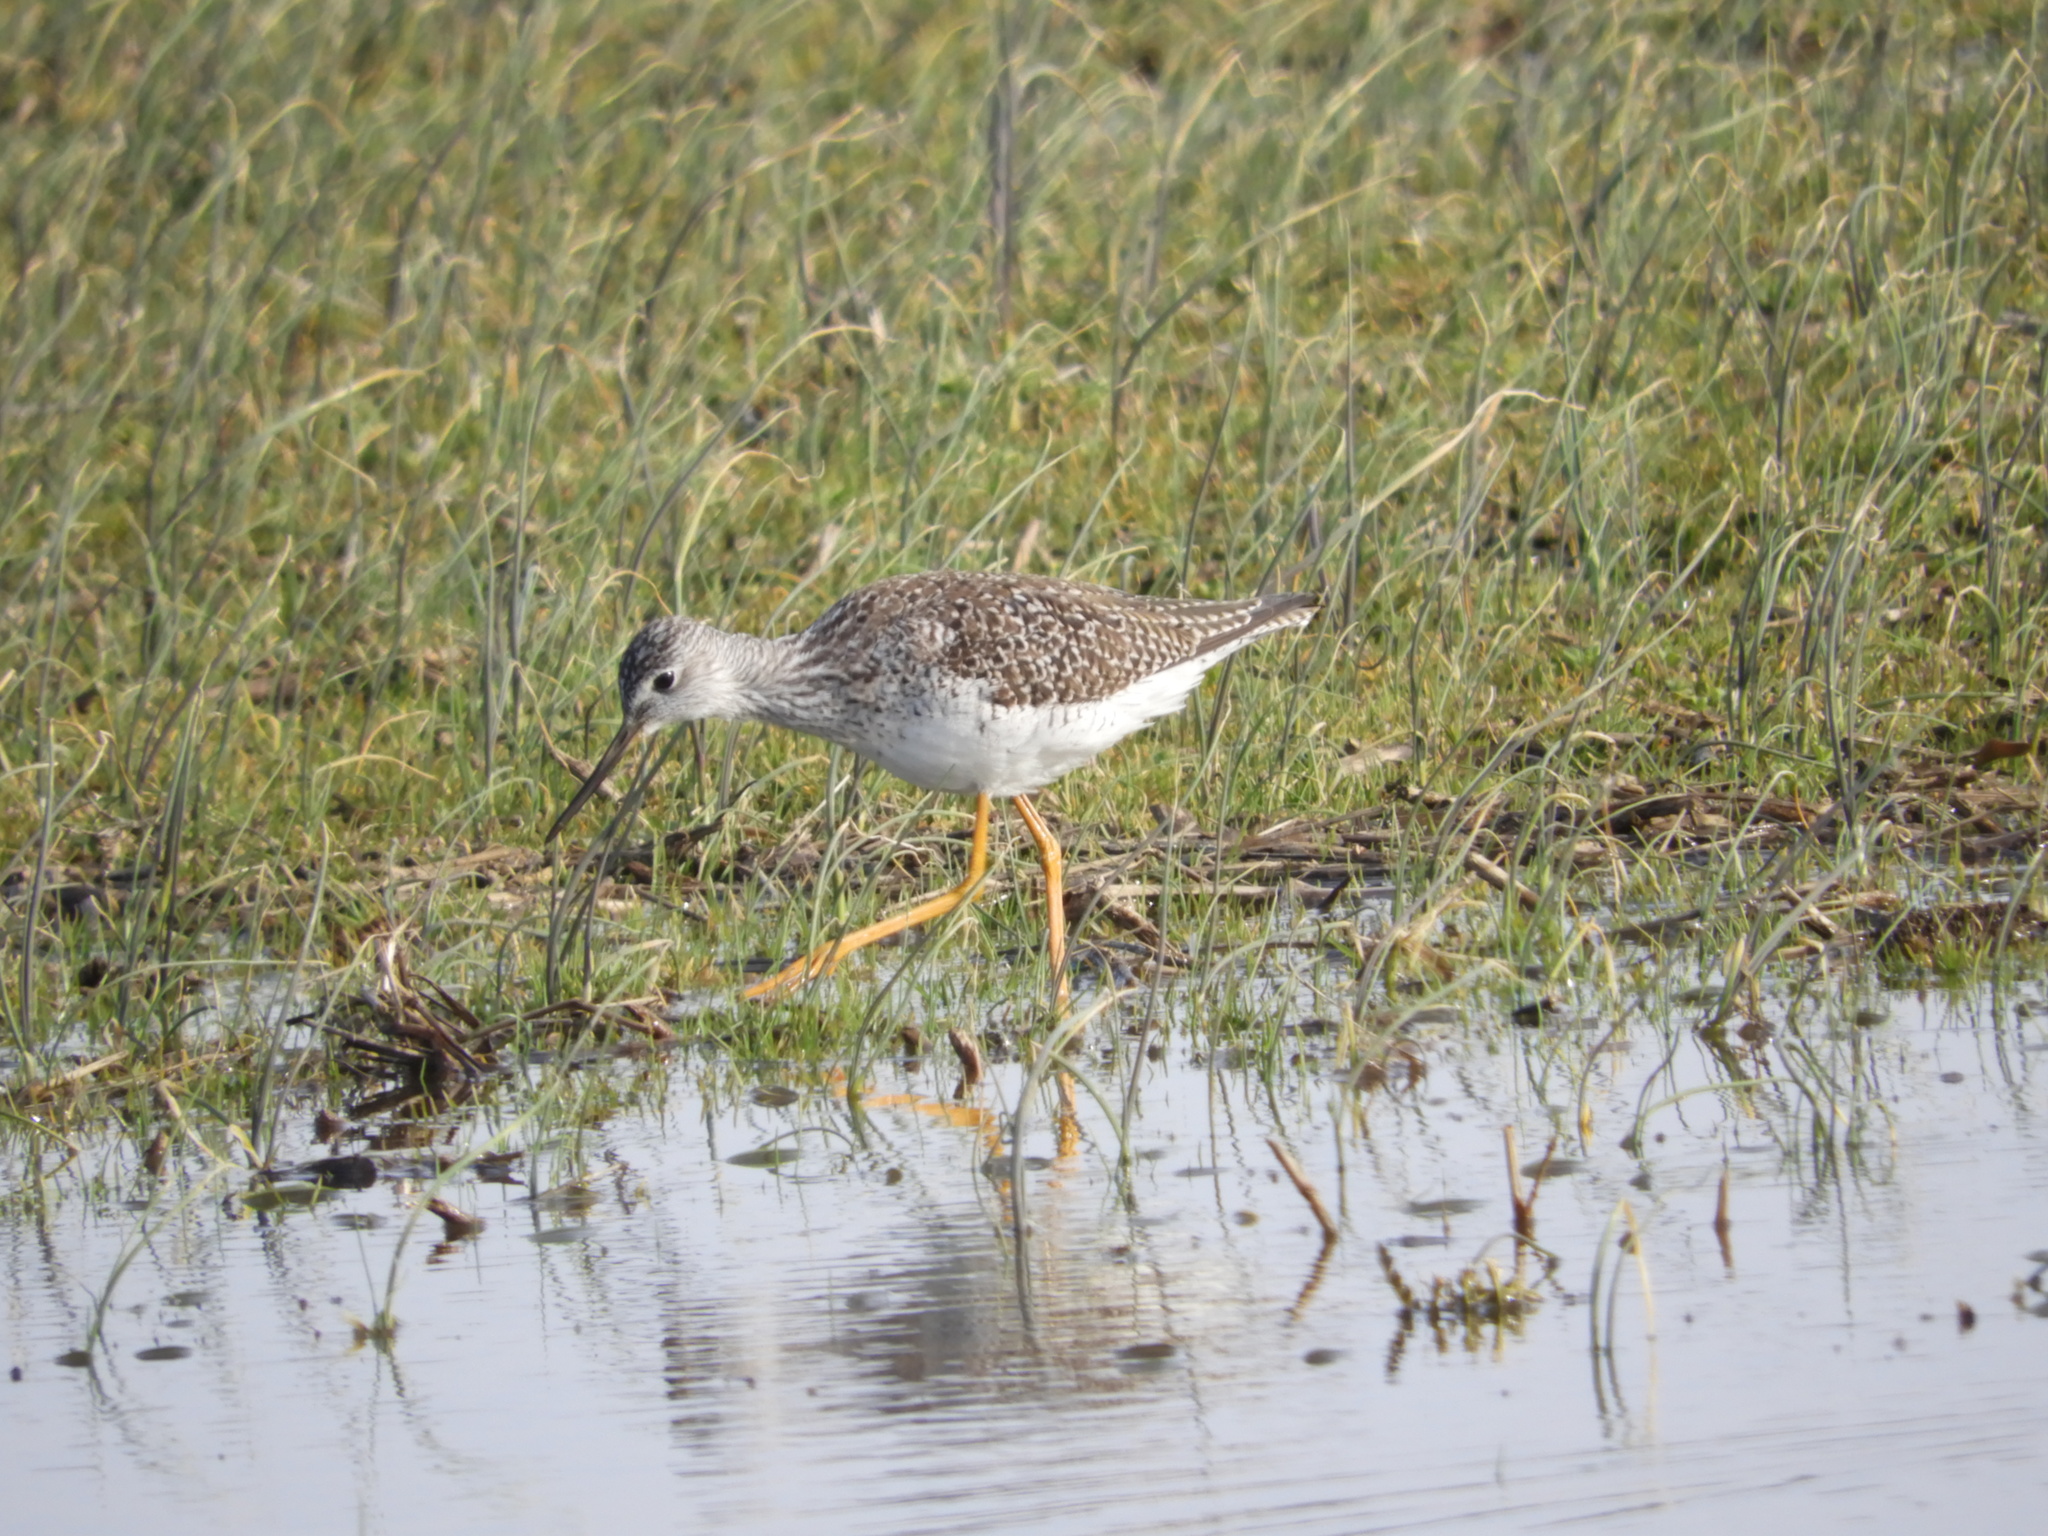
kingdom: Animalia
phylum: Chordata
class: Aves
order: Charadriiformes
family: Scolopacidae
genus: Tringa
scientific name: Tringa melanoleuca
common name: Greater yellowlegs
